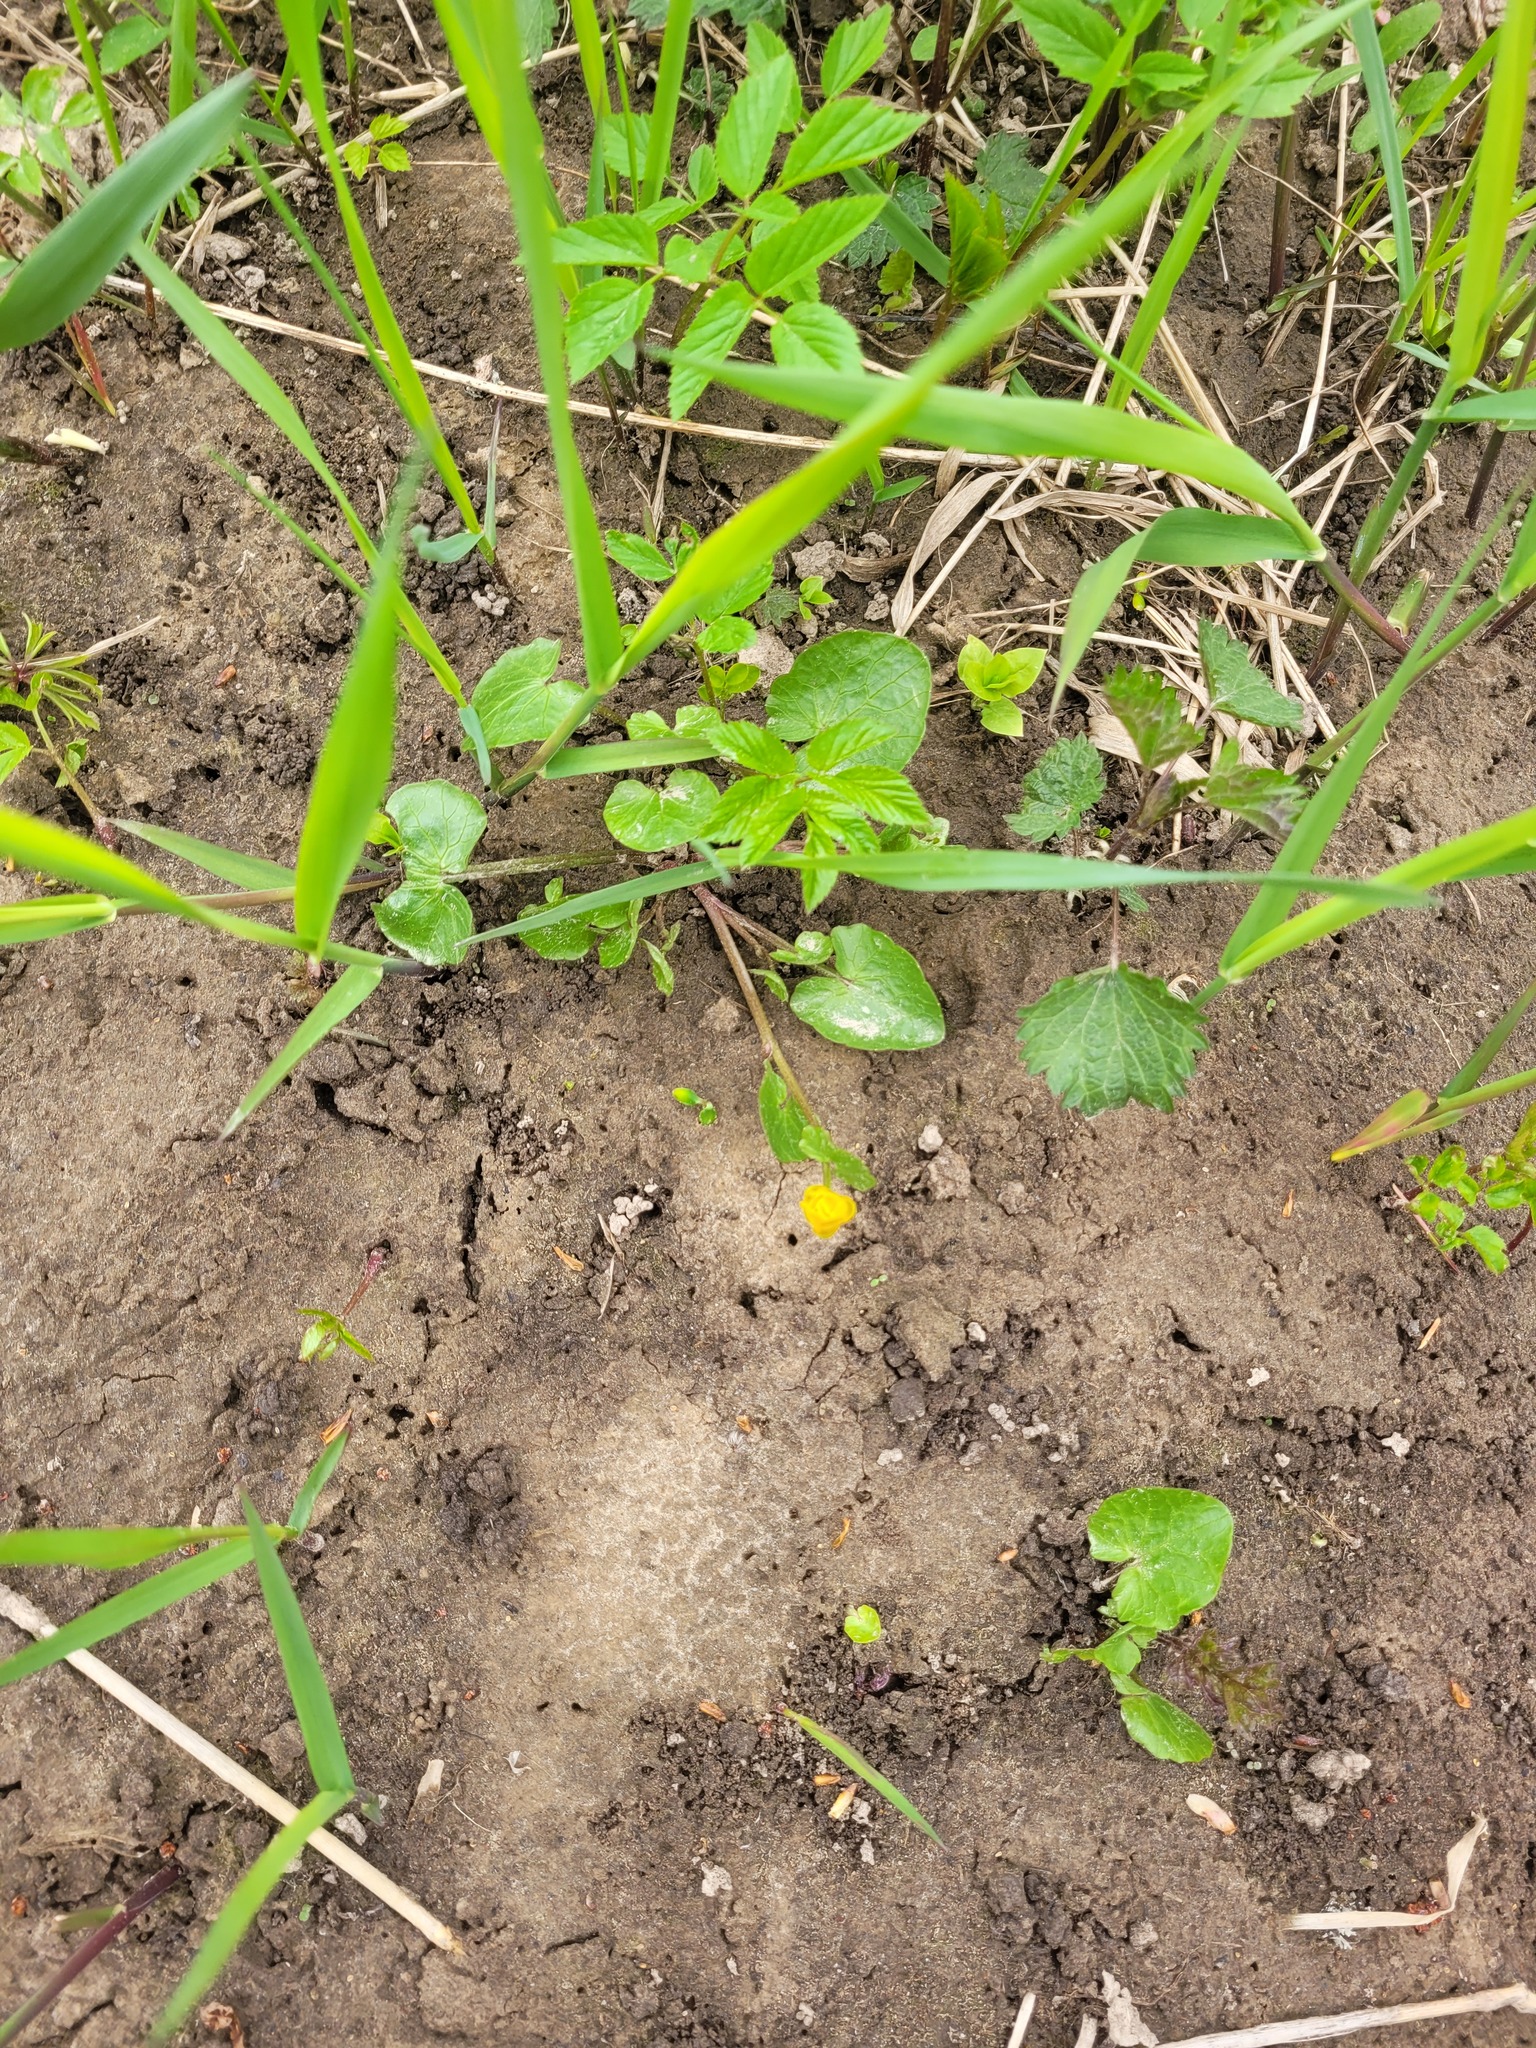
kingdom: Plantae
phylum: Tracheophyta
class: Magnoliopsida
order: Ranunculales
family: Ranunculaceae
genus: Ficaria
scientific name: Ficaria verna
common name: Lesser celandine
